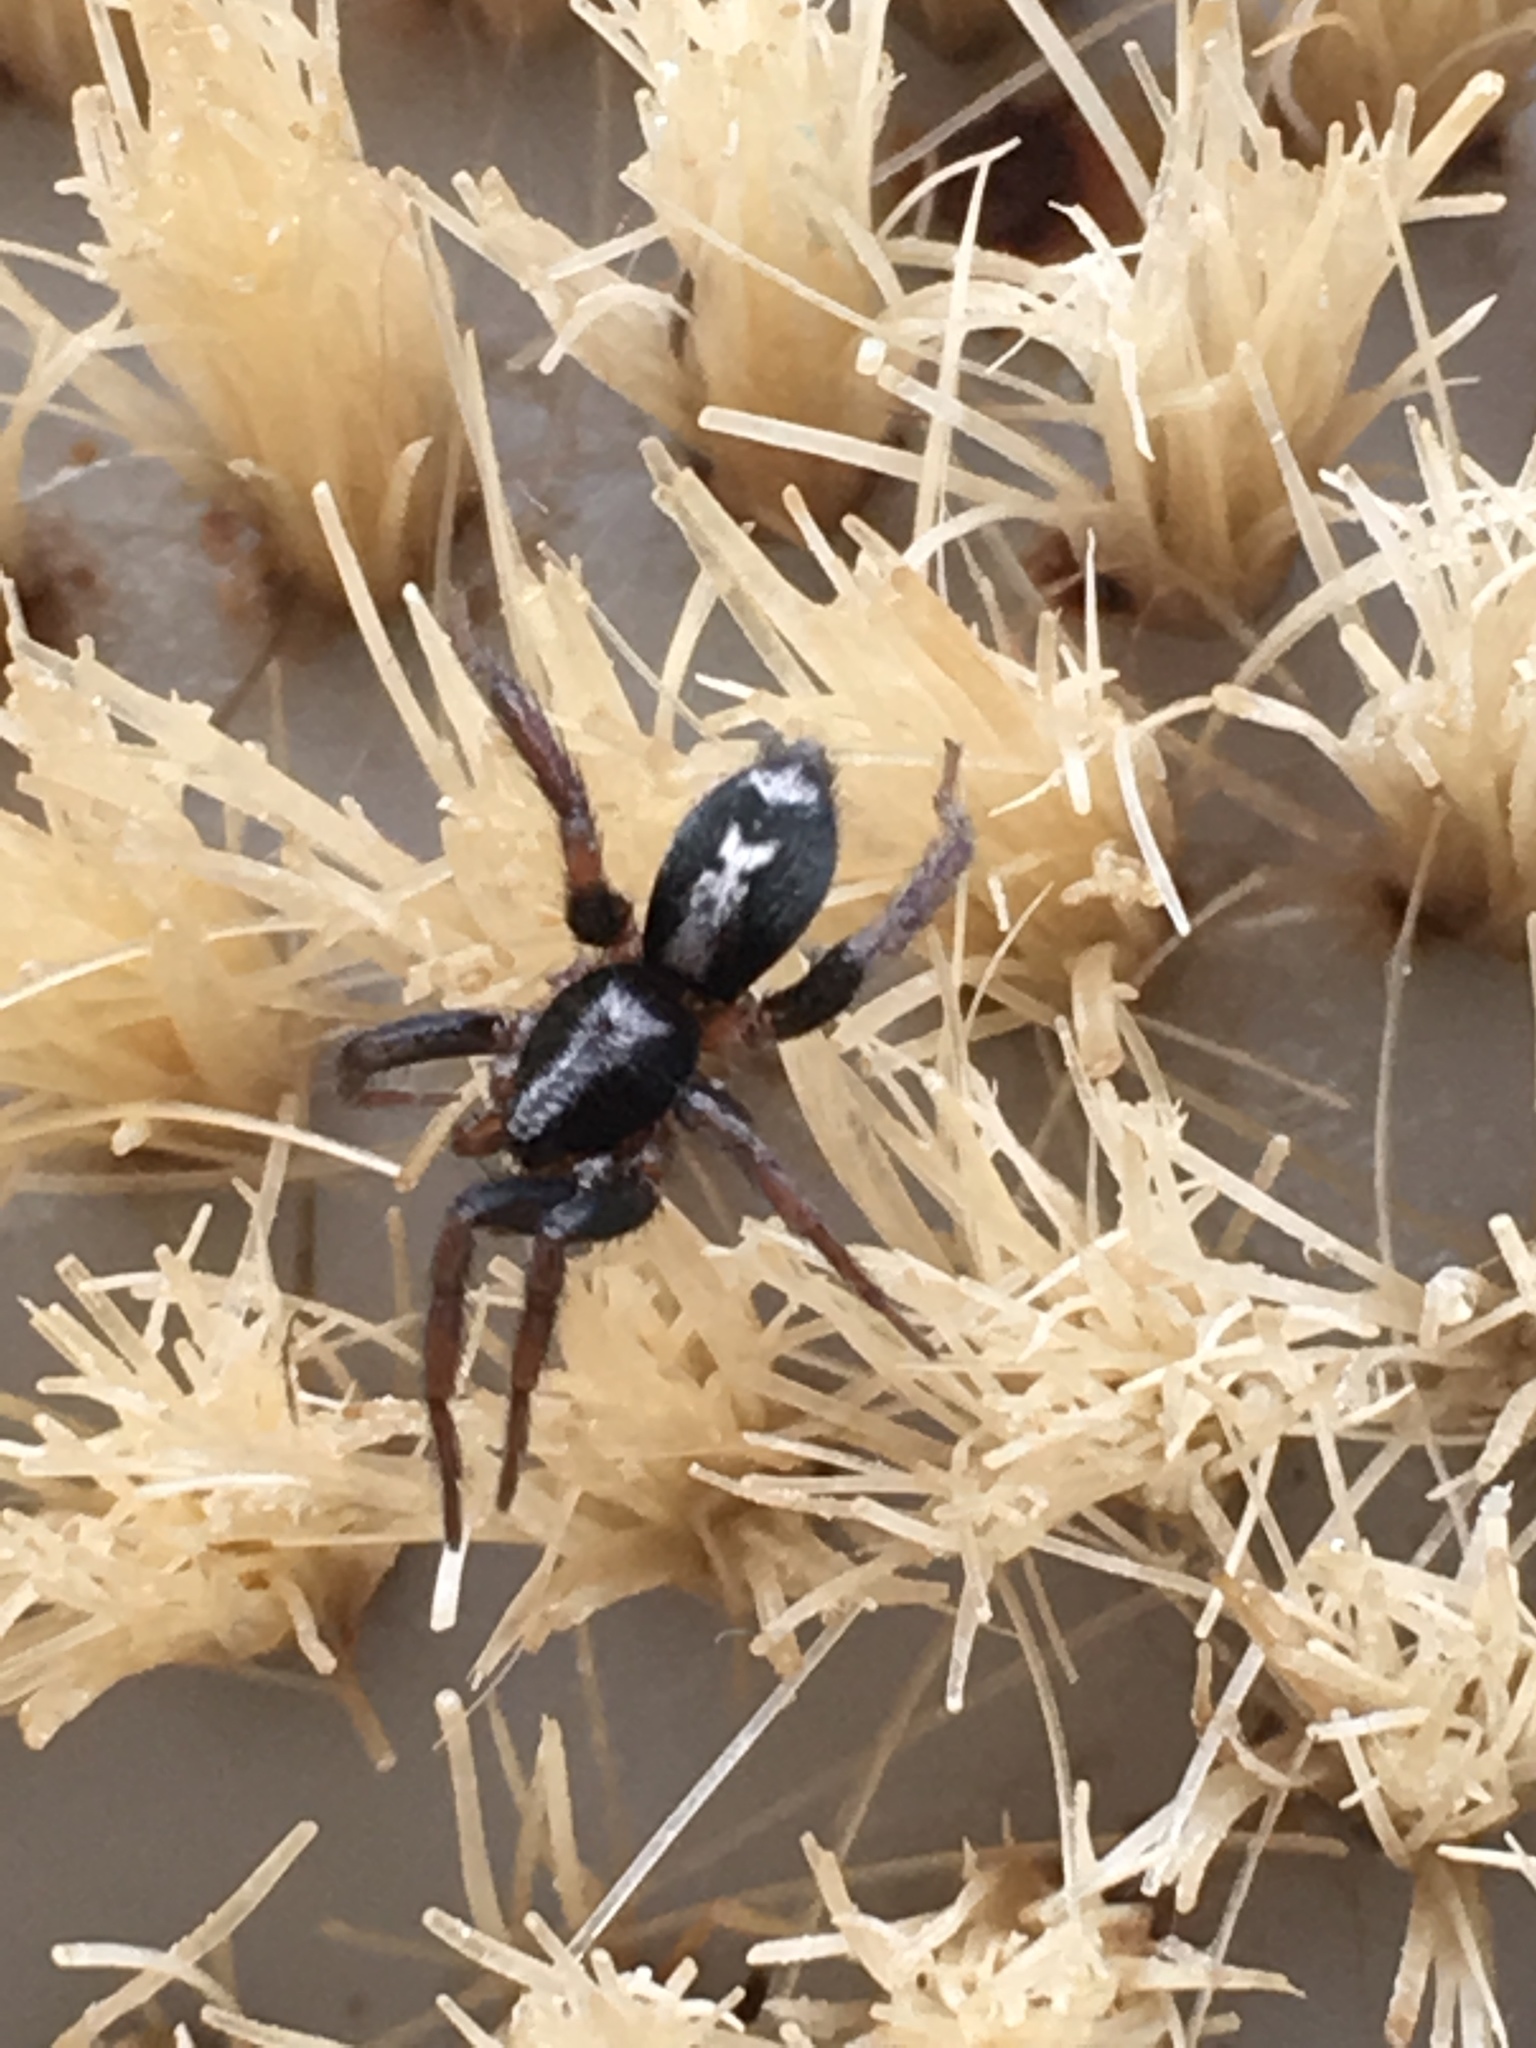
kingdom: Animalia
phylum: Arthropoda
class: Arachnida
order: Araneae
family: Gnaphosidae
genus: Herpyllus
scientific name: Herpyllus ecclesiasticus
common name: Eastern parson spider
